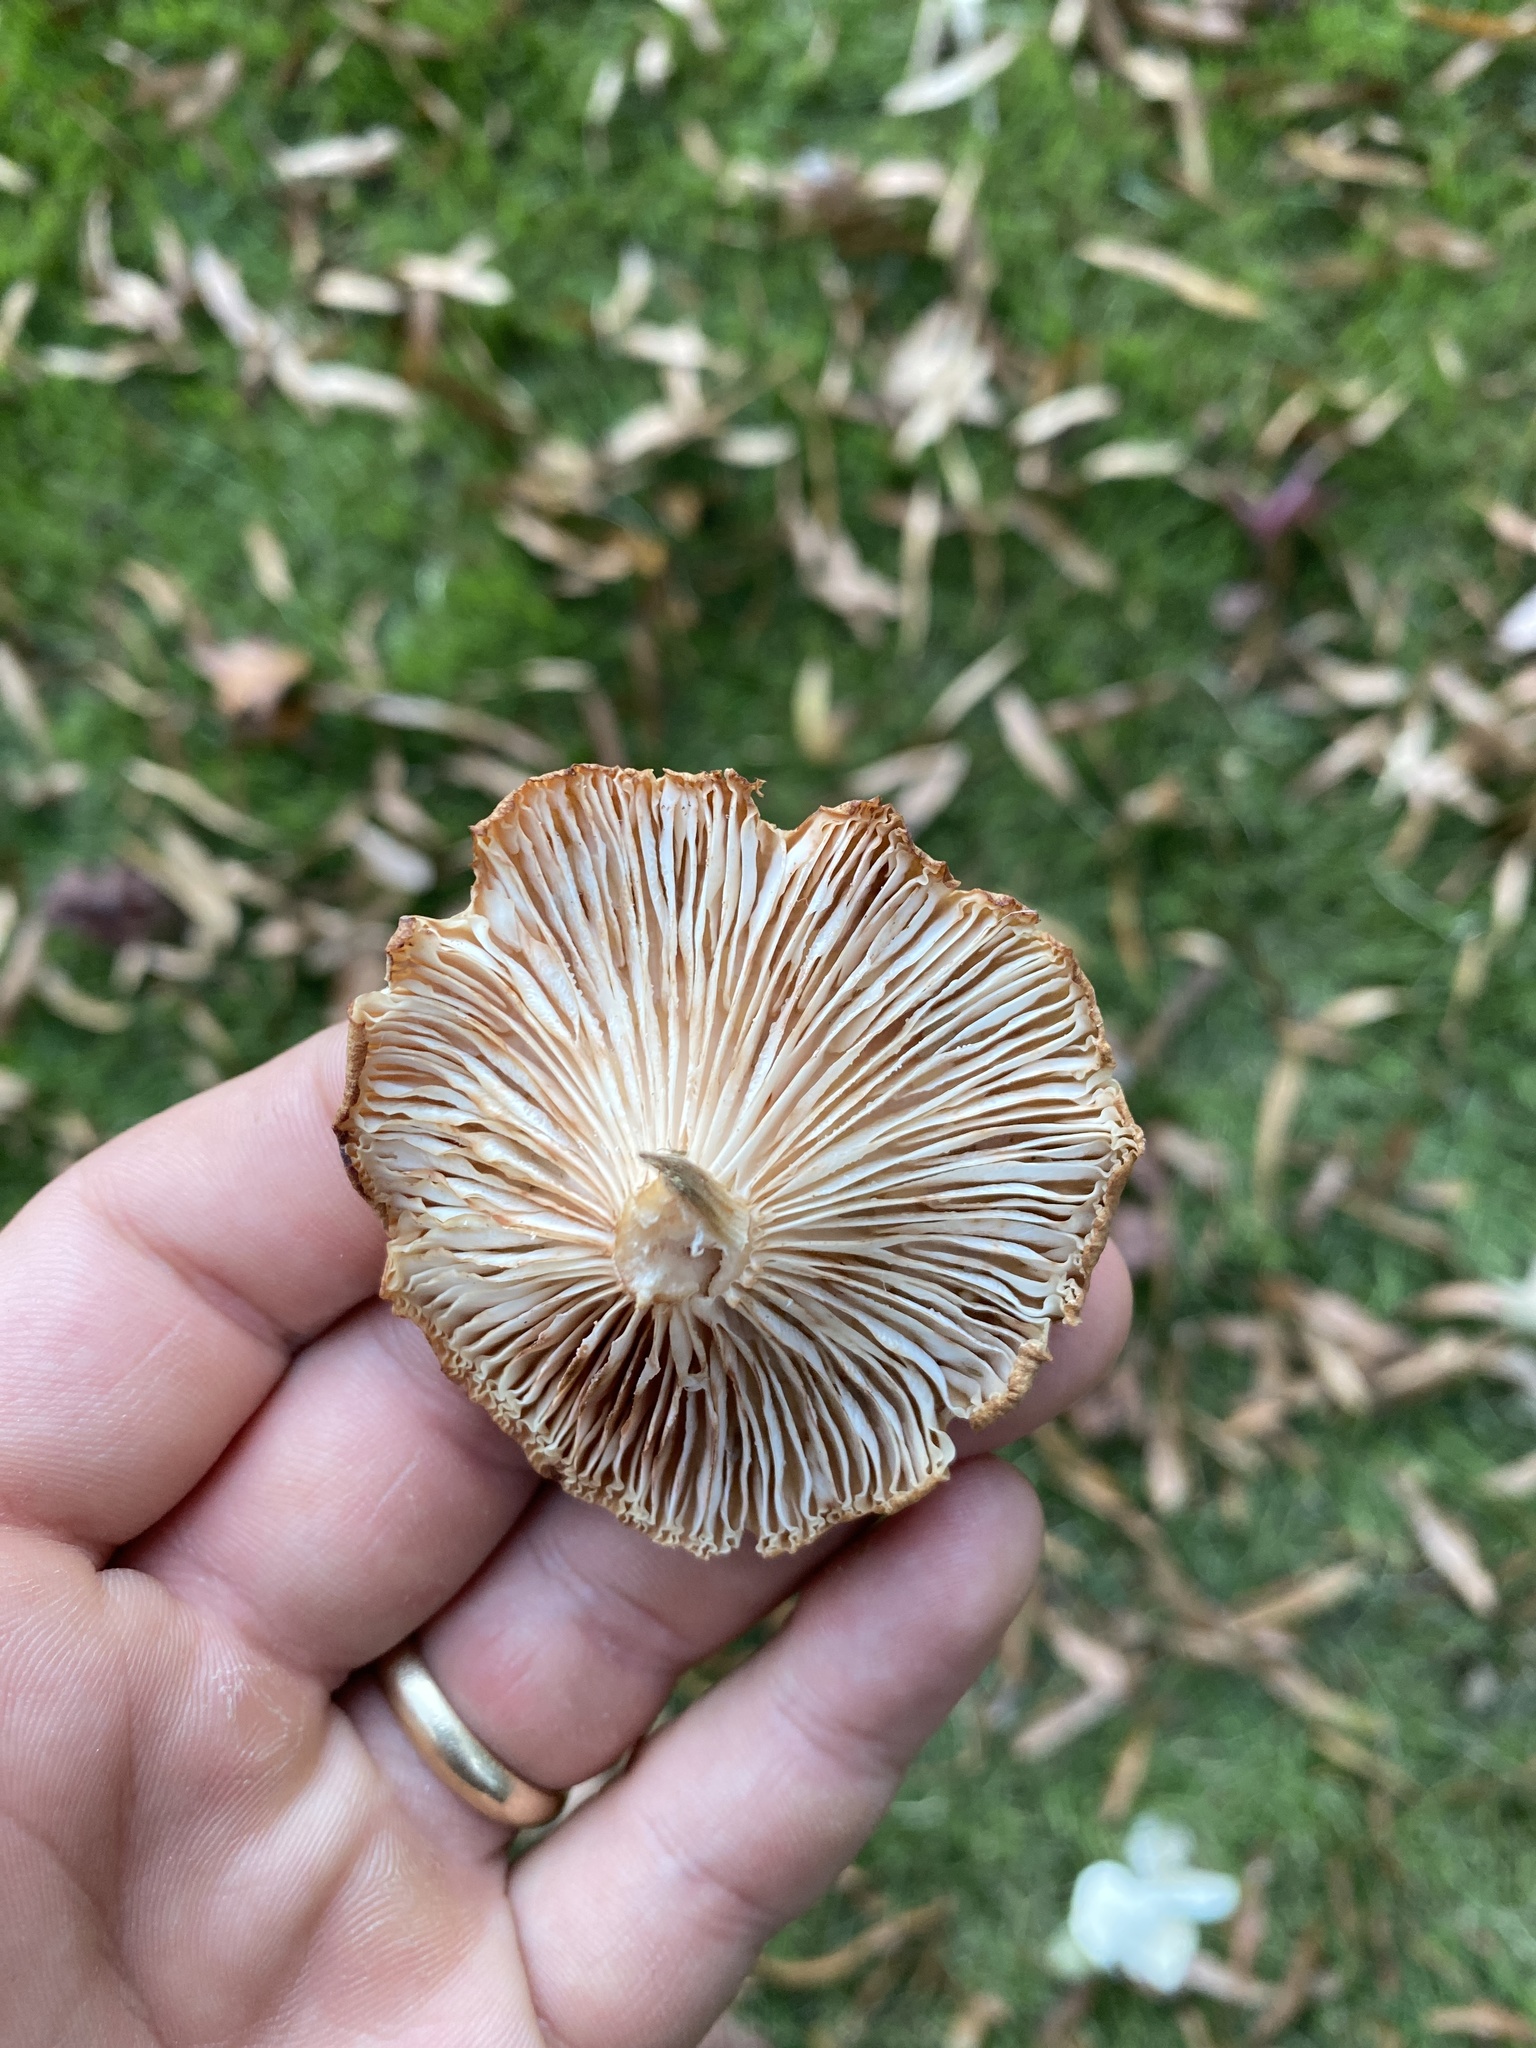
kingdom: Fungi
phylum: Basidiomycota
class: Agaricomycetes
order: Agaricales
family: Physalacriaceae
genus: Desarmillaria
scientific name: Desarmillaria caespitosa
